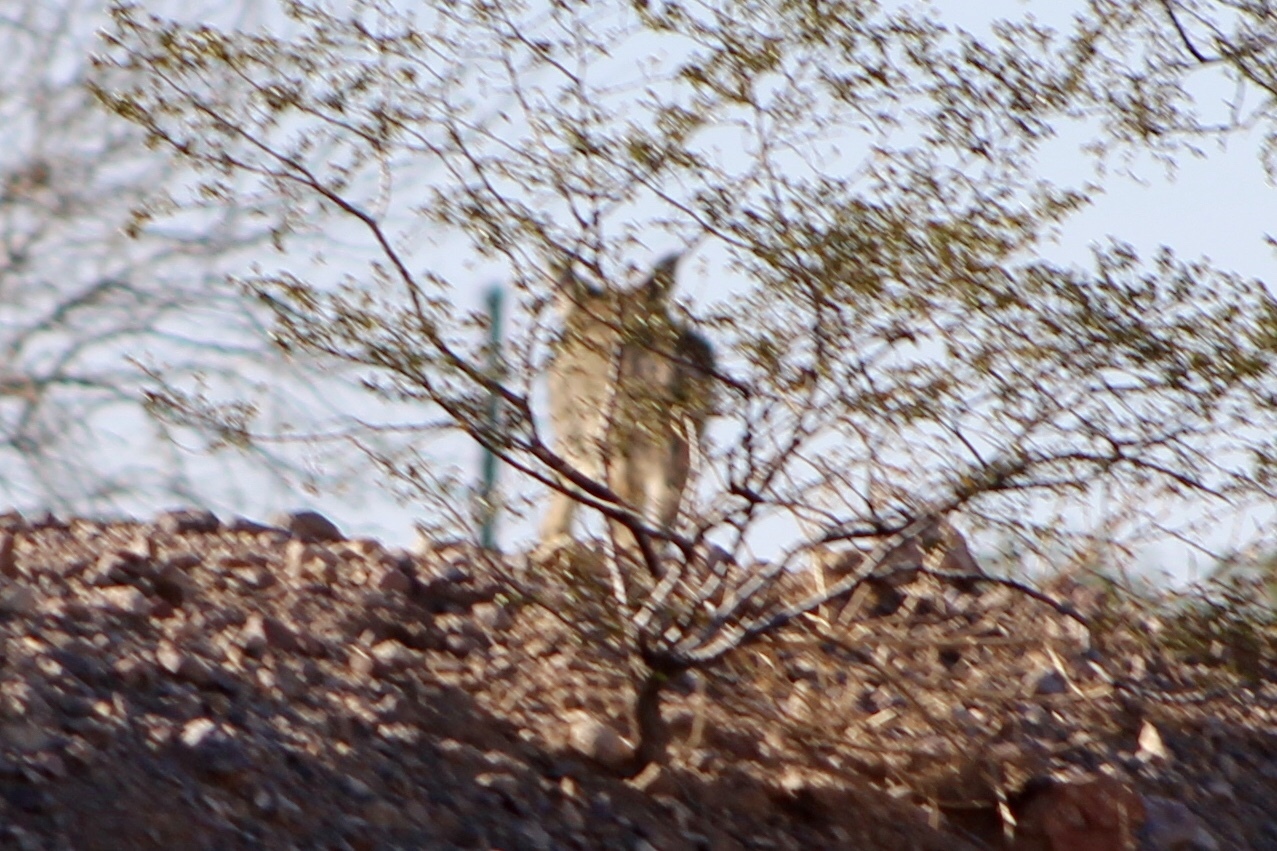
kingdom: Animalia
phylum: Chordata
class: Mammalia
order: Carnivora
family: Canidae
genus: Canis
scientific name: Canis latrans
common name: Coyote
